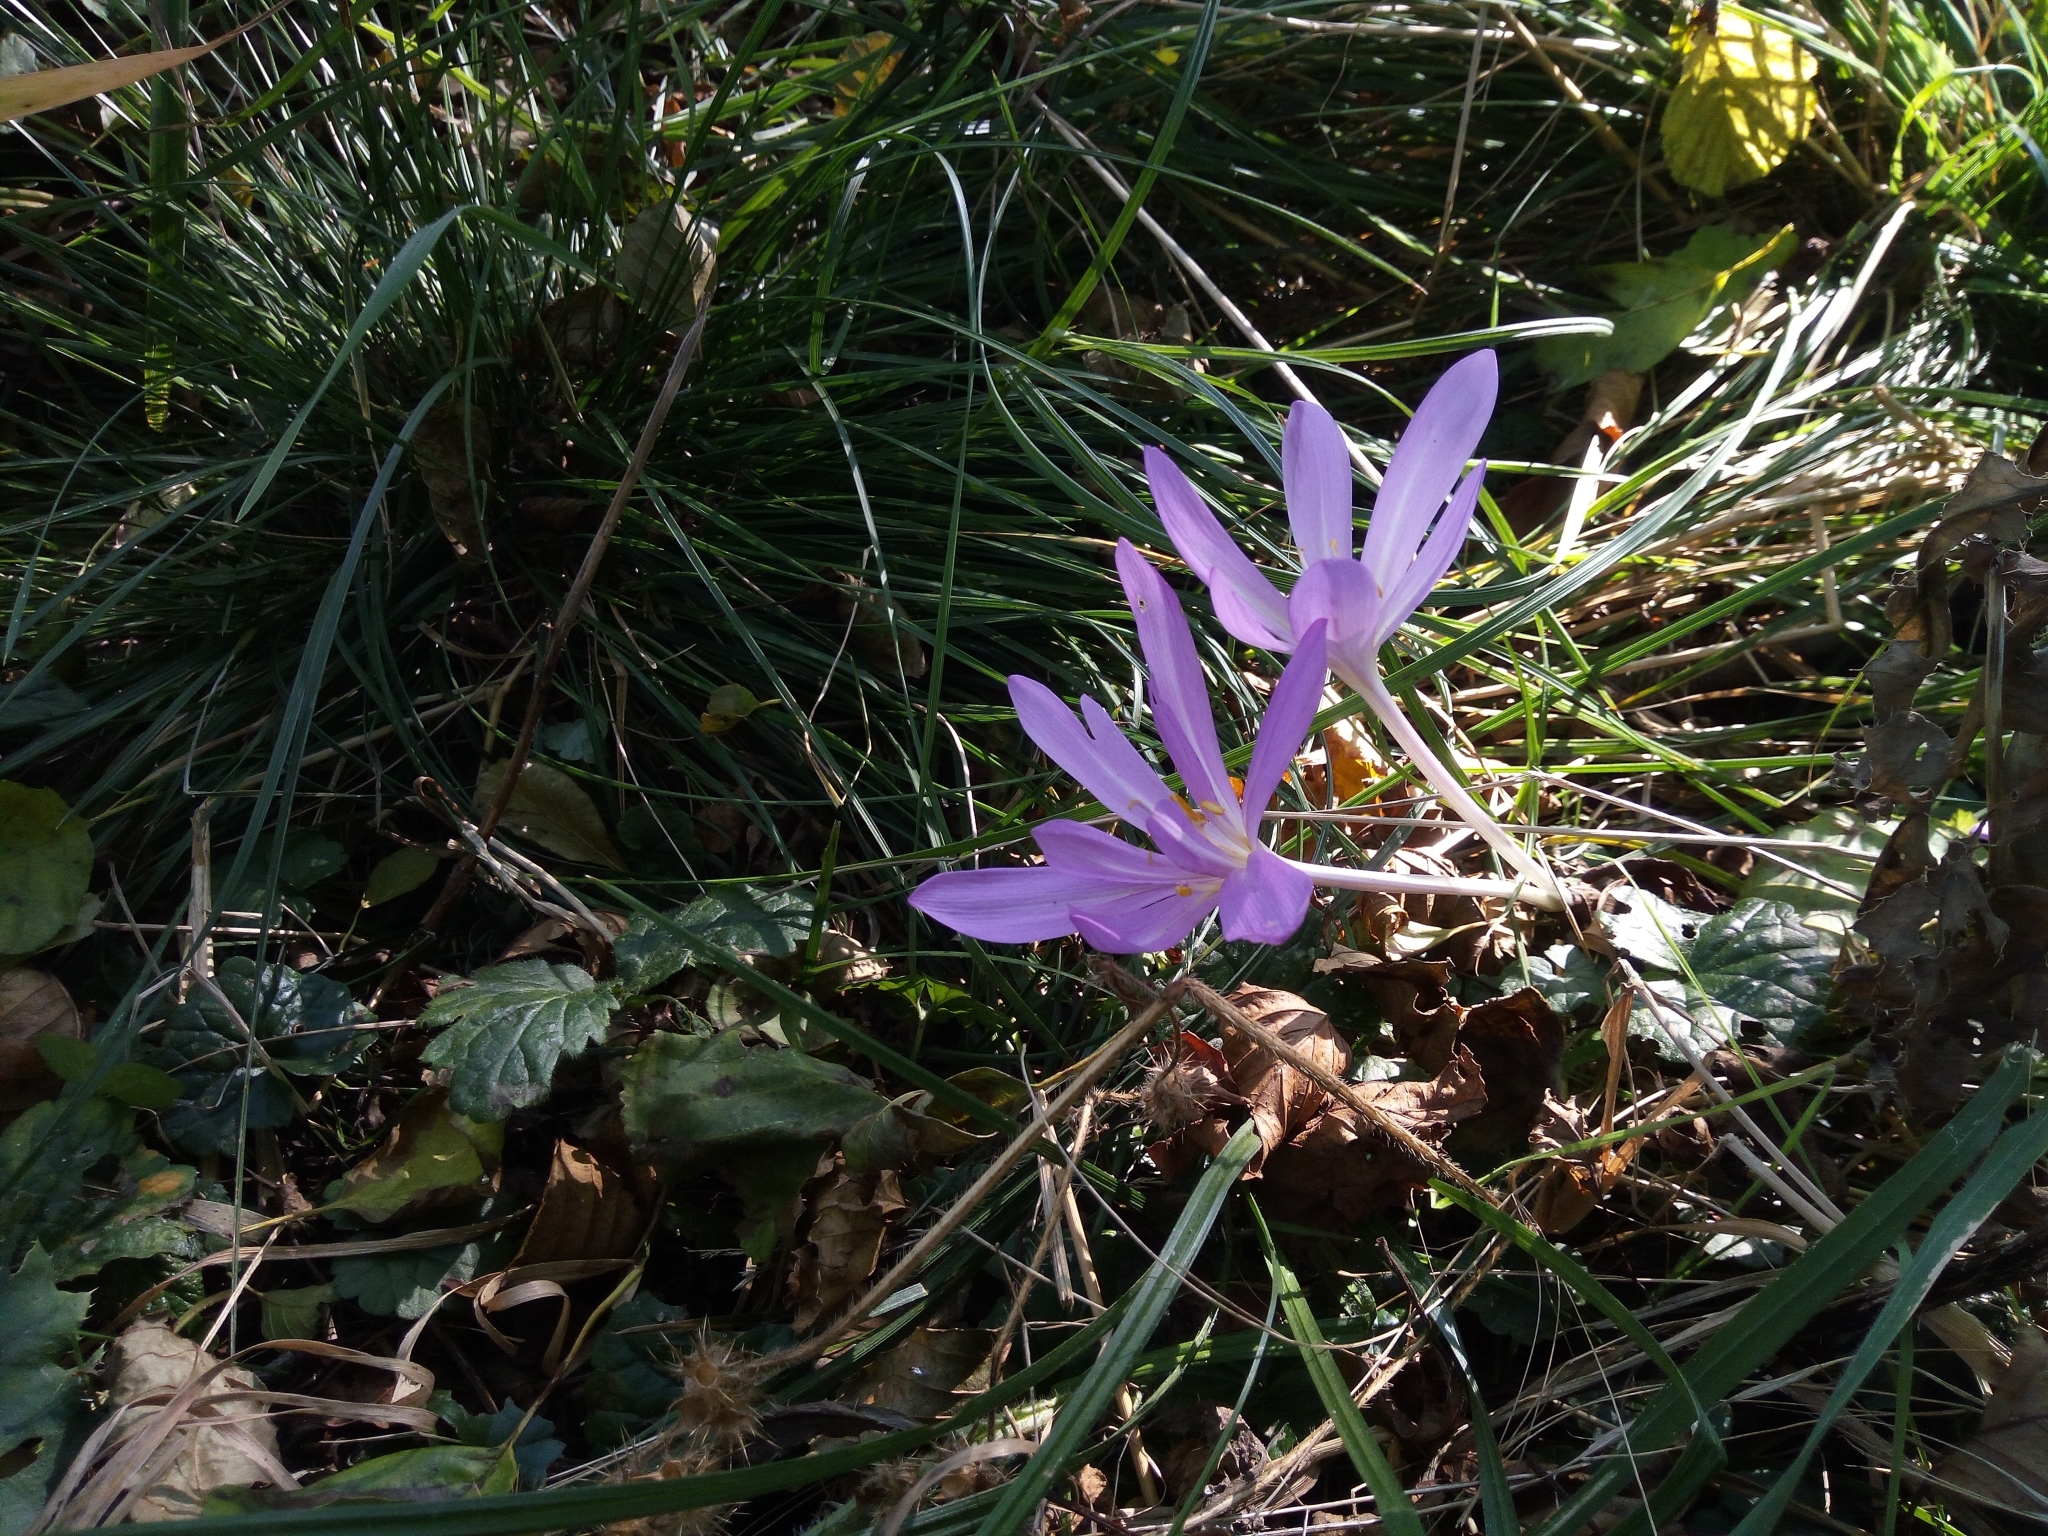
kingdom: Plantae
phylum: Tracheophyta
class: Liliopsida
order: Liliales
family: Colchicaceae
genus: Colchicum
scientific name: Colchicum autumnale
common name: Autumn crocus
